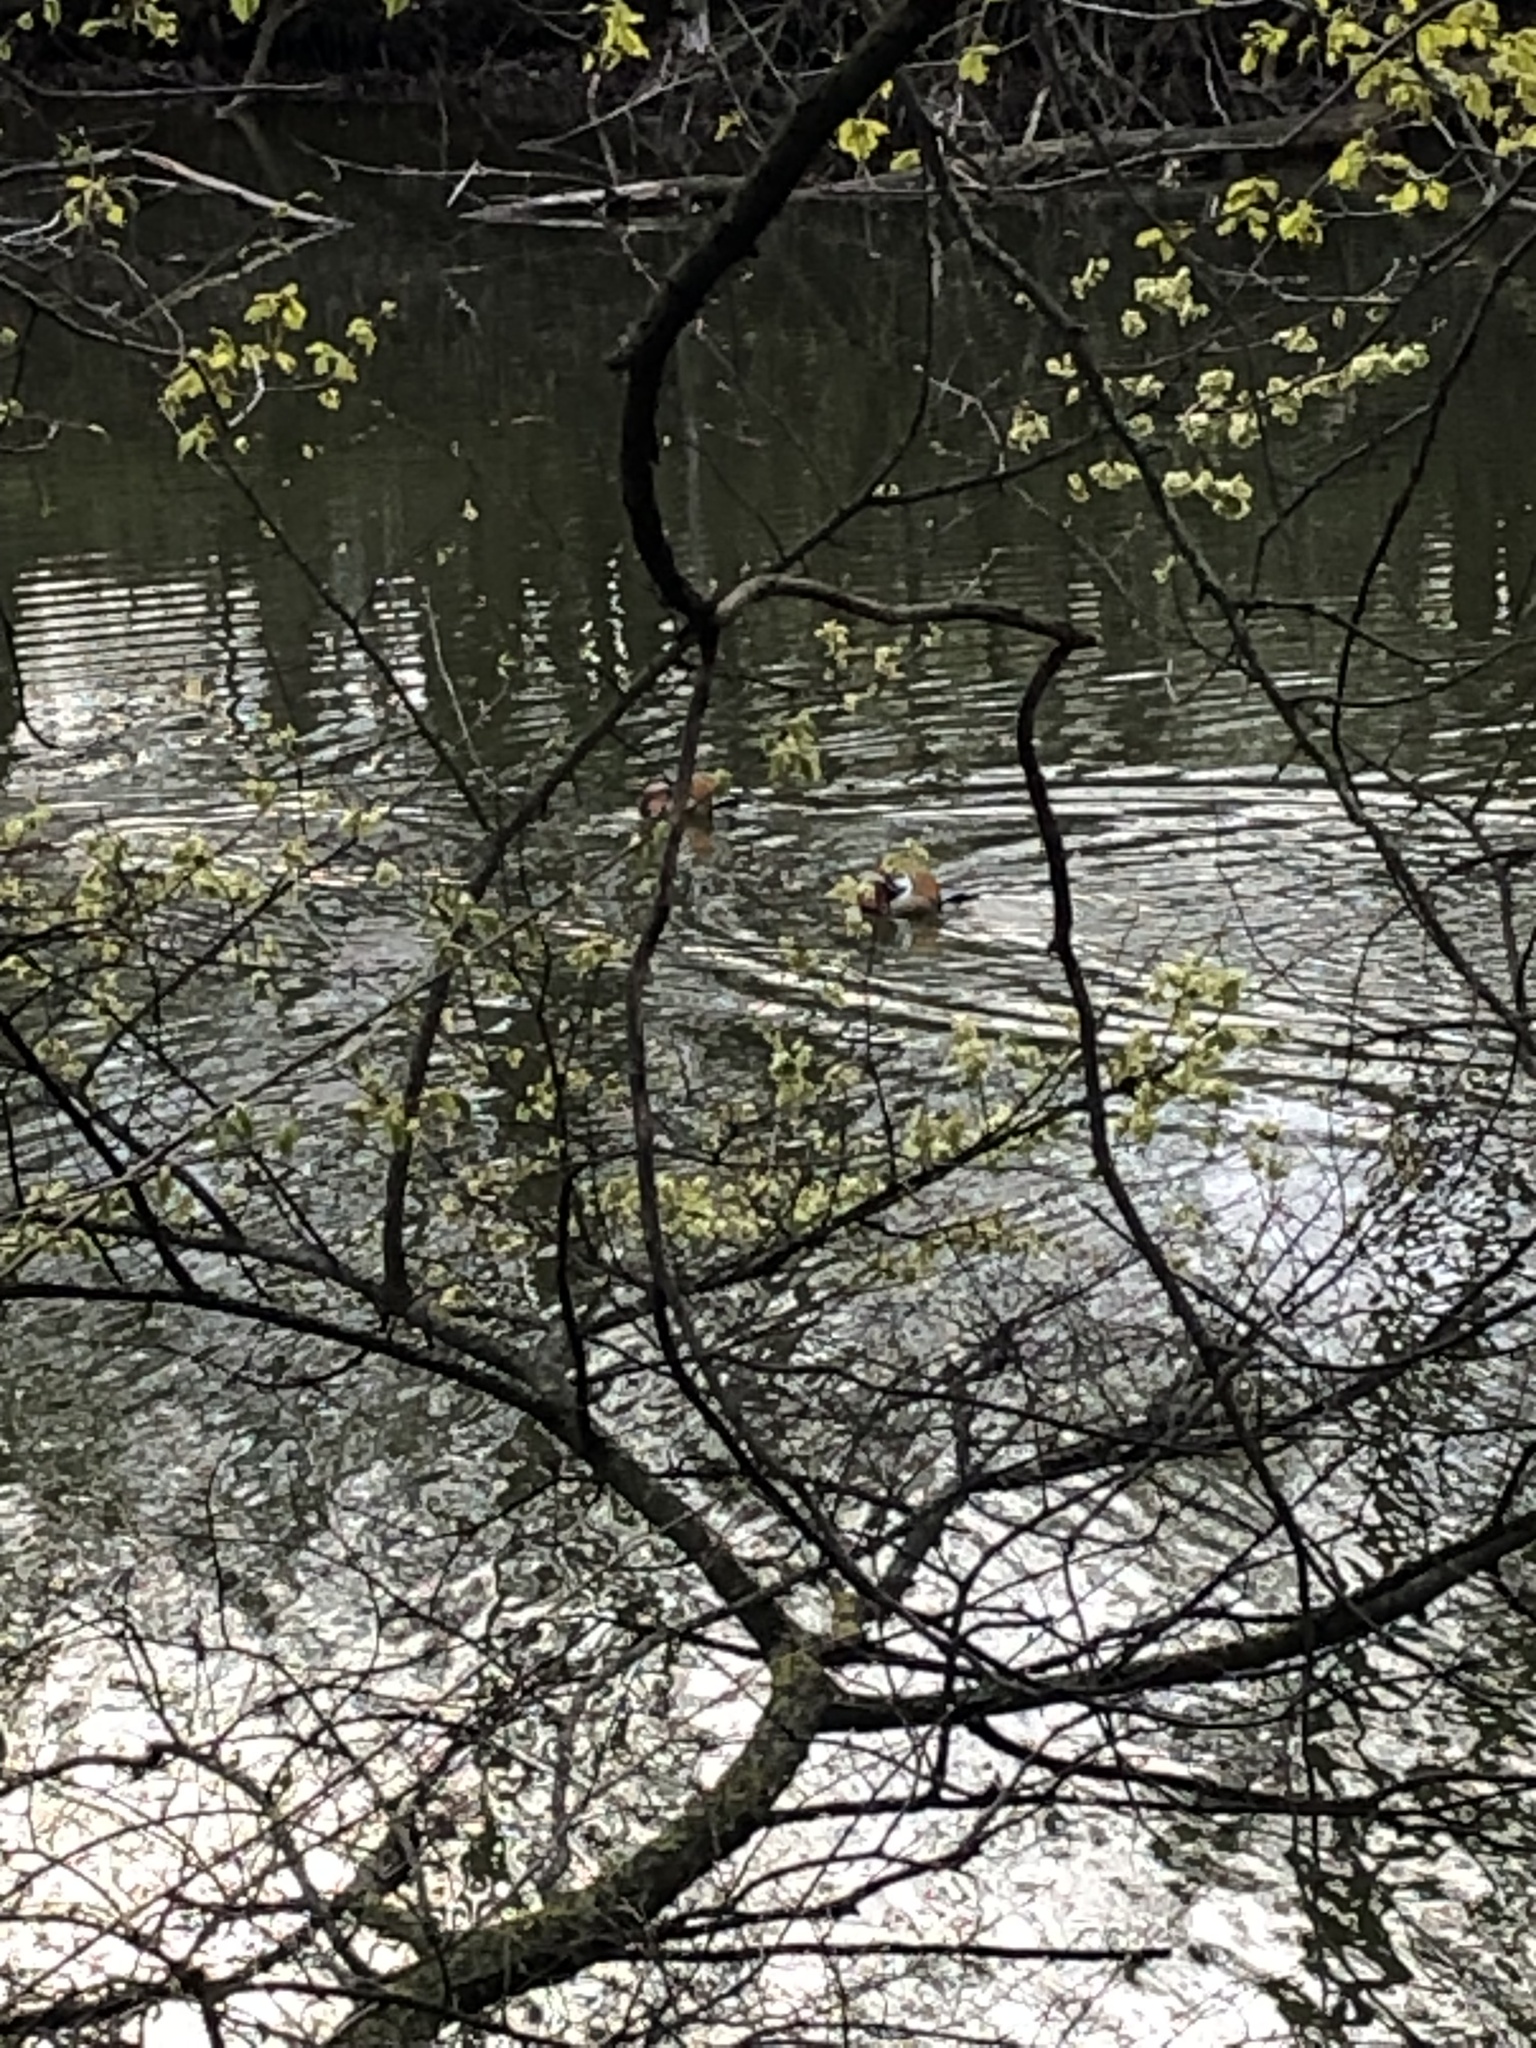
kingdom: Animalia
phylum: Chordata
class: Aves
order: Anseriformes
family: Anatidae
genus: Aix
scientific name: Aix galericulata
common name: Mandarin duck
